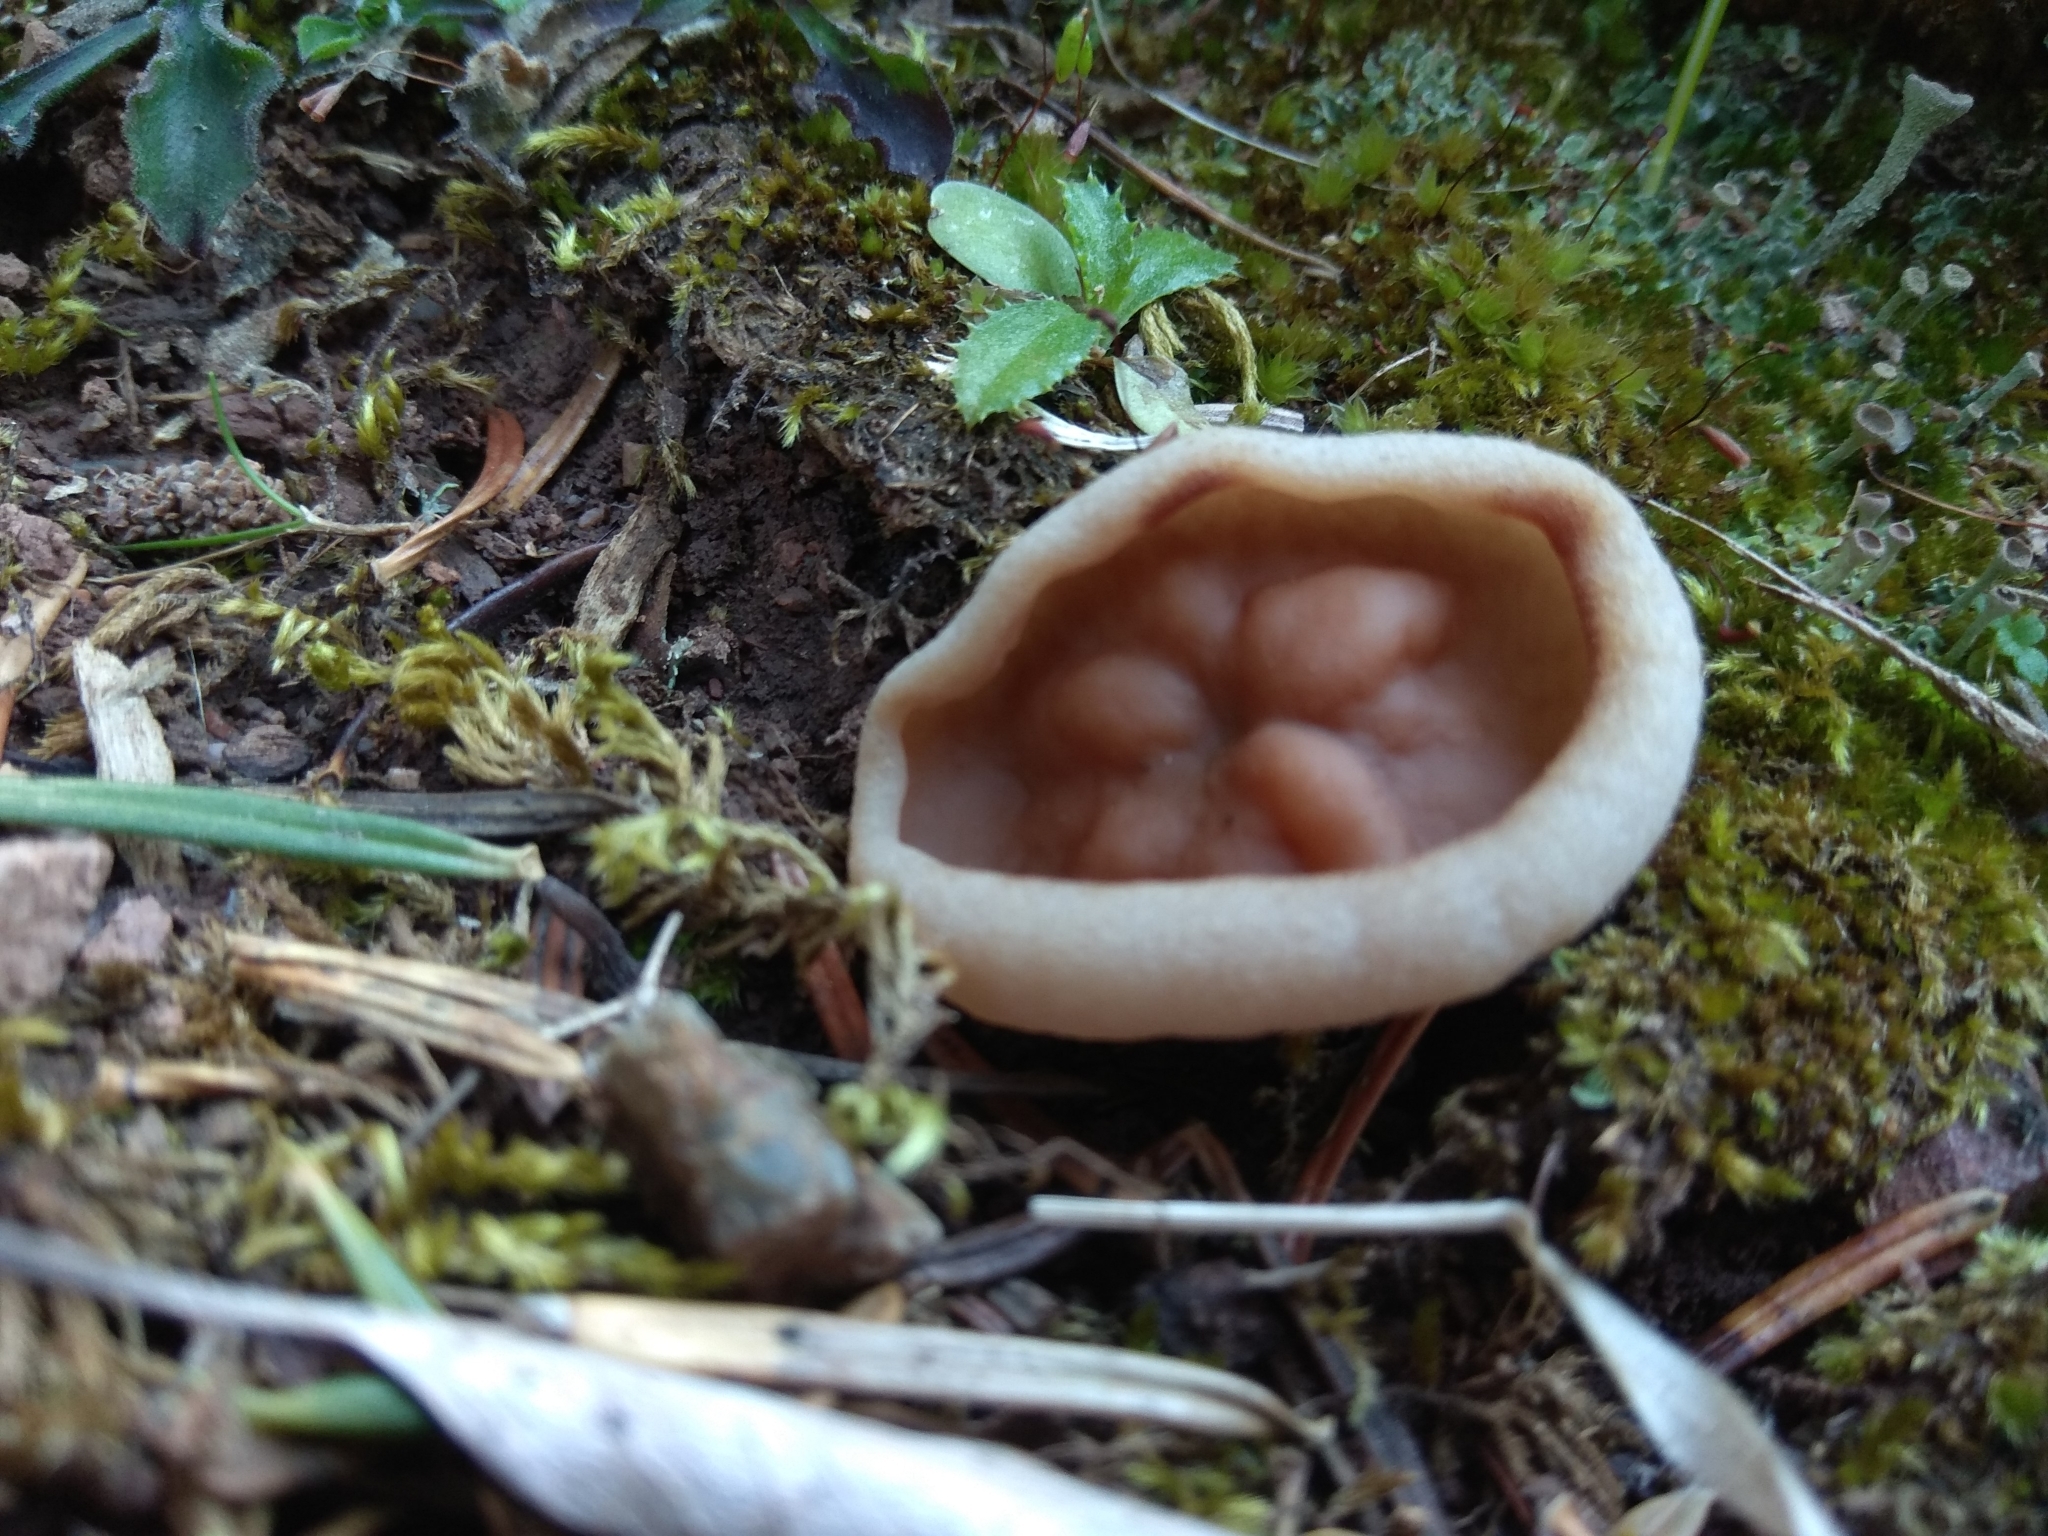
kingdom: Fungi
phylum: Ascomycota
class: Pezizomycetes
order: Pezizales
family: Discinaceae
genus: Discina
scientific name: Discina
